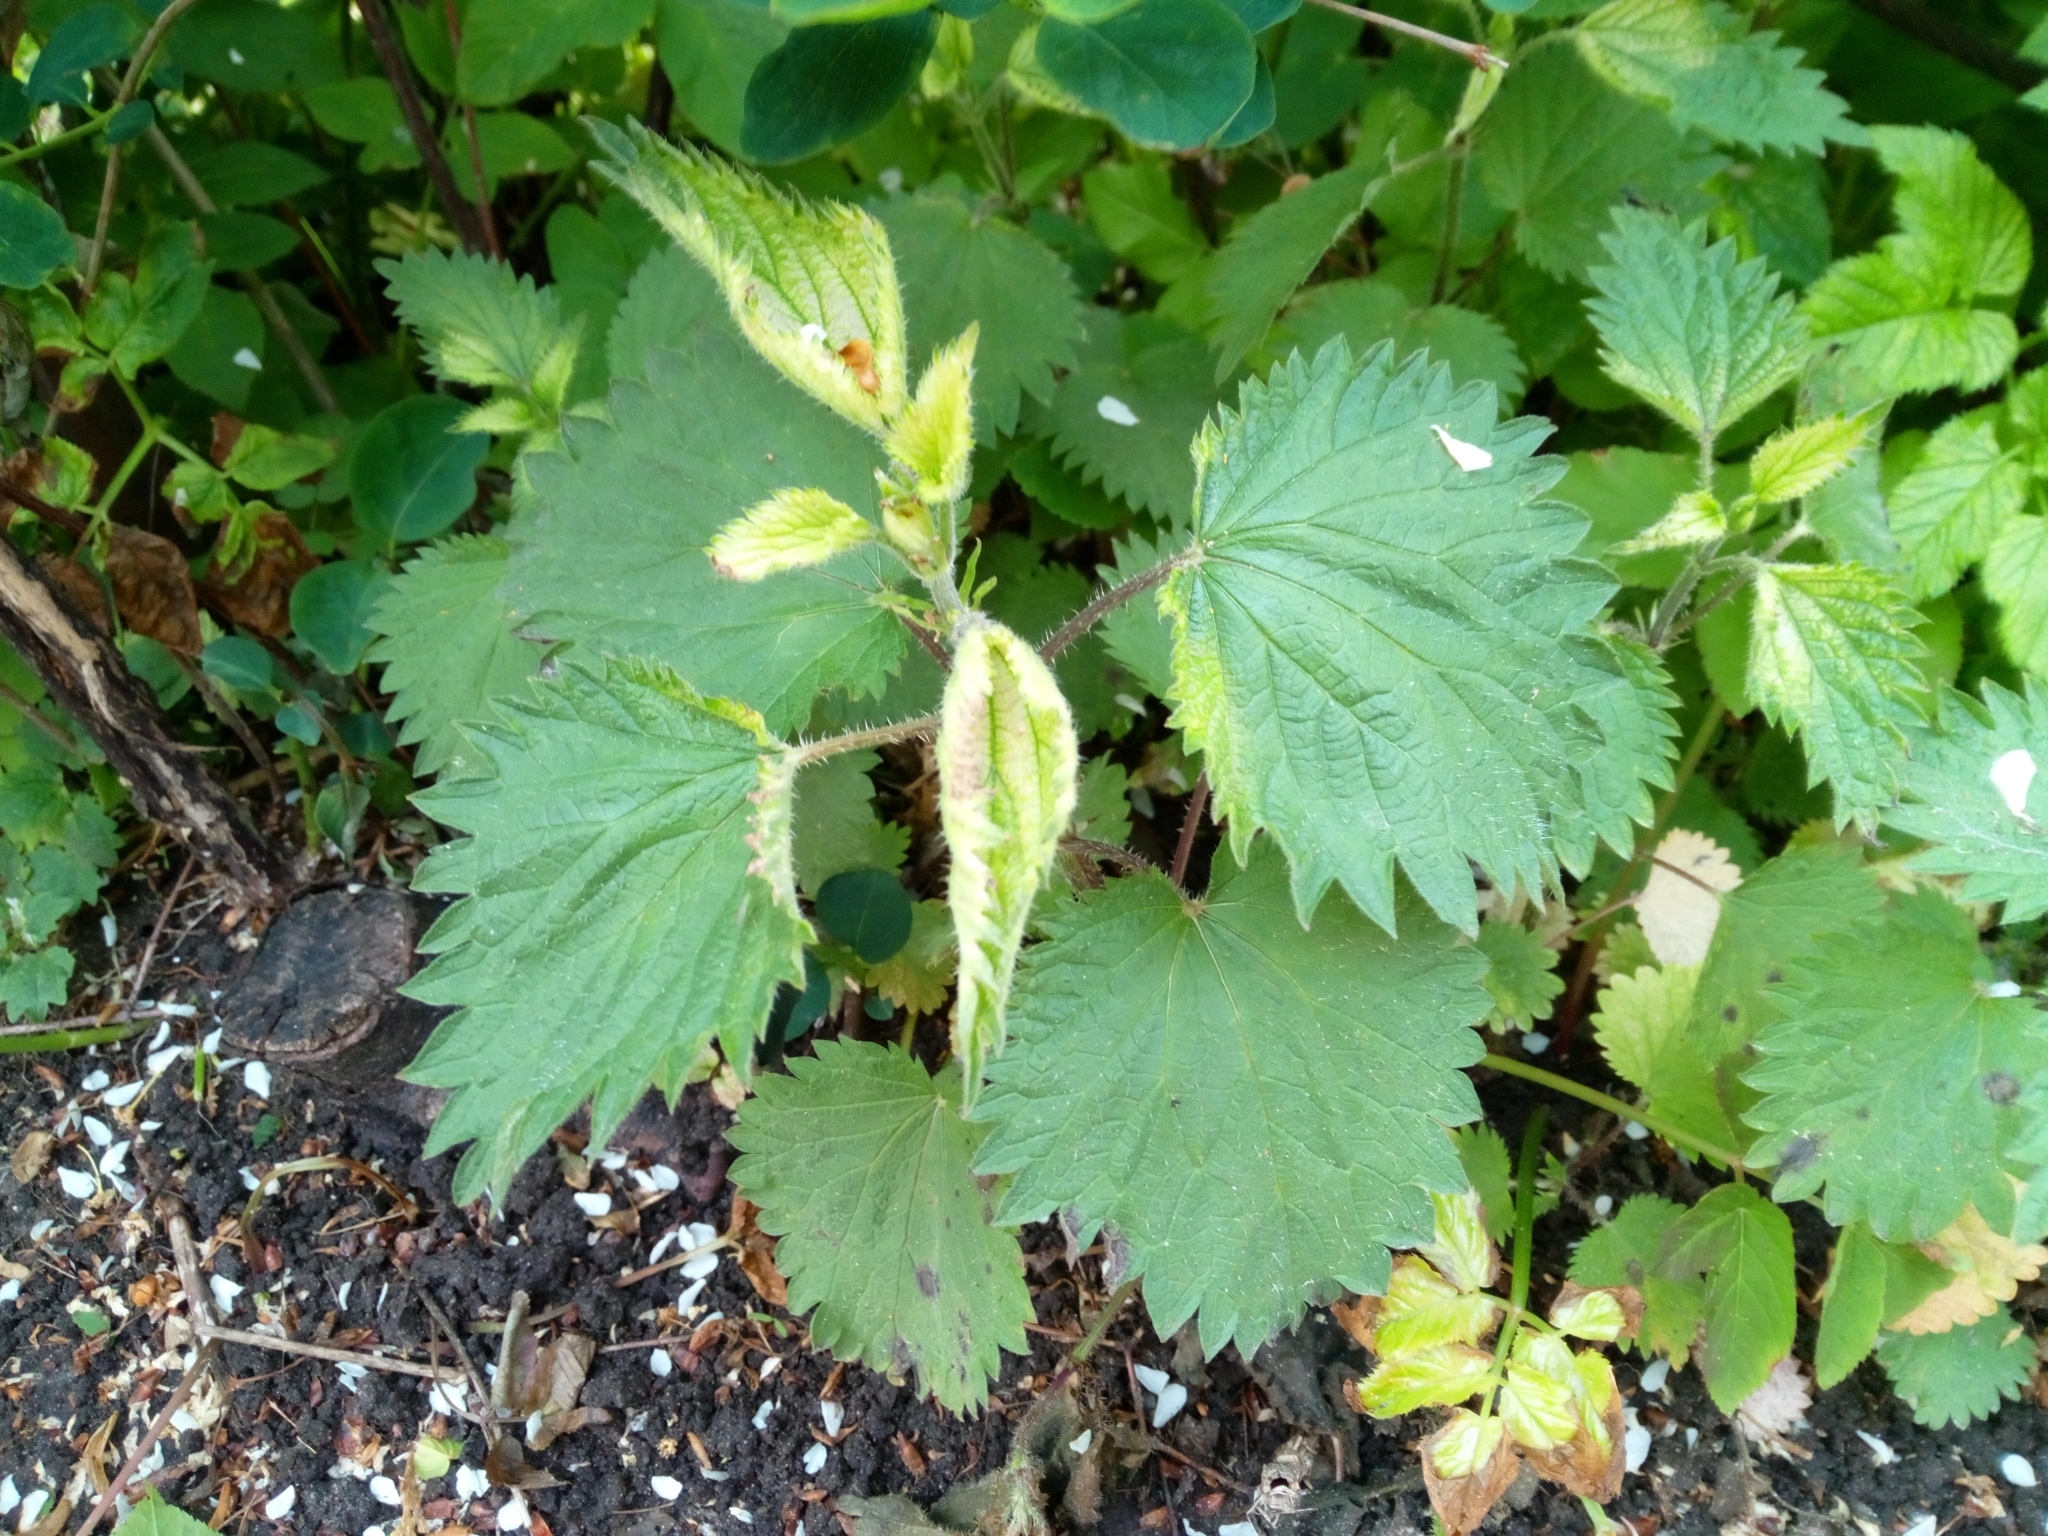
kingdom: Plantae
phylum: Tracheophyta
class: Magnoliopsida
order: Rosales
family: Urticaceae
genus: Urtica
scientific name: Urtica dioica
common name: Common nettle
